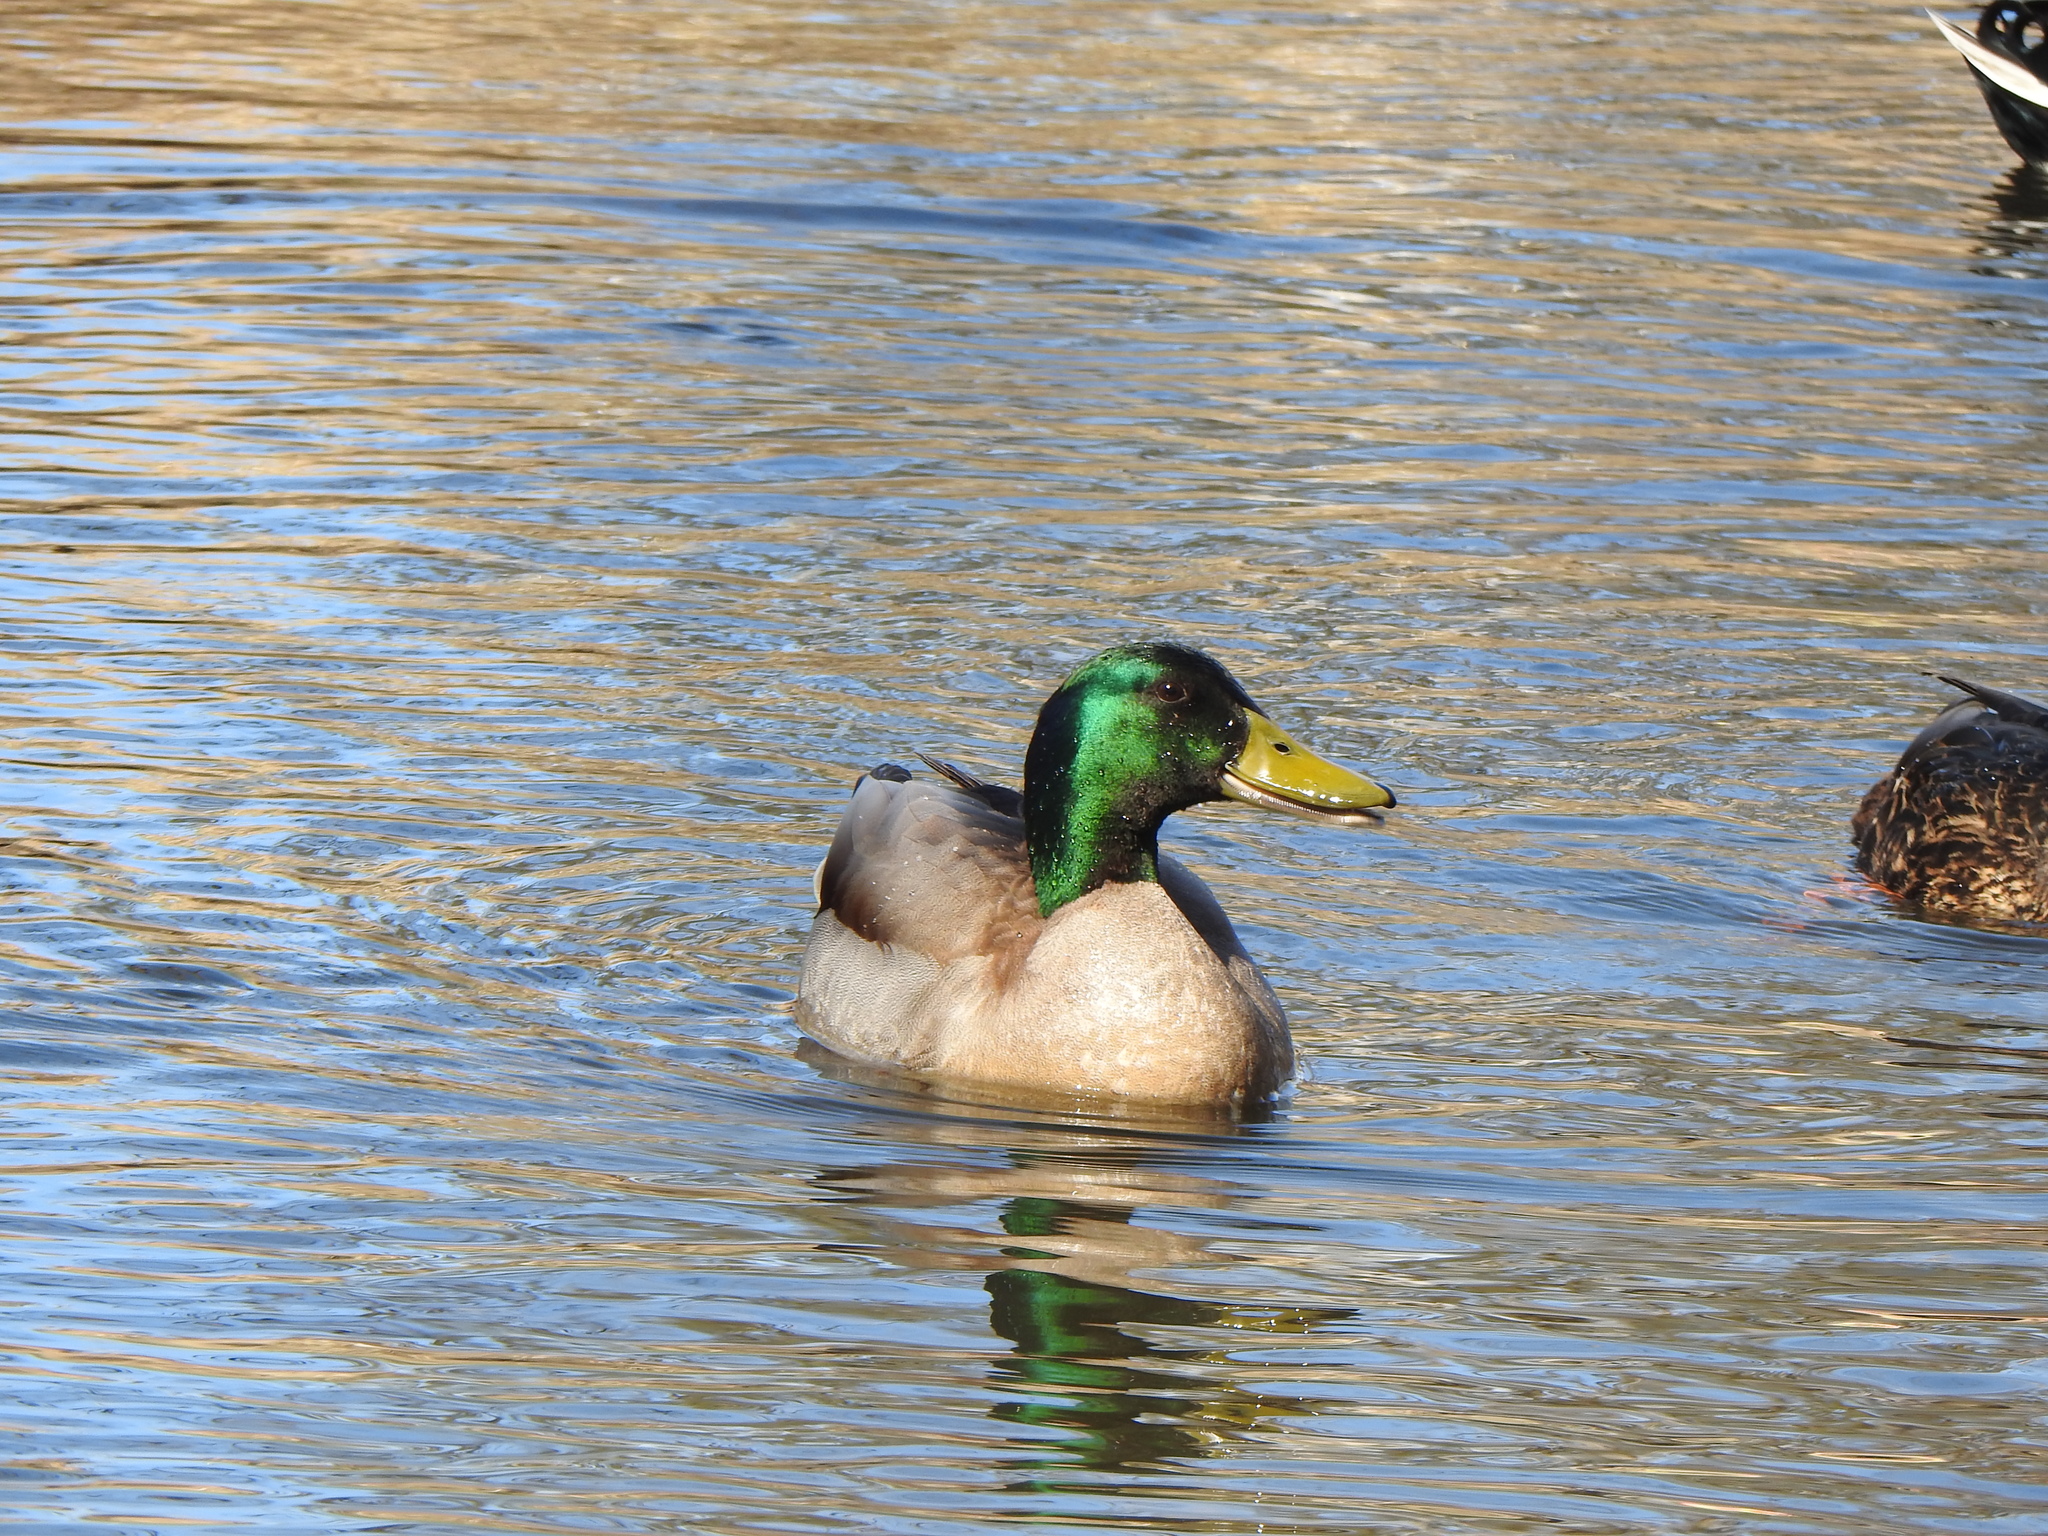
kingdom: Animalia
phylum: Chordata
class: Aves
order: Anseriformes
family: Anatidae
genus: Anas
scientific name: Anas platyrhynchos
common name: Mallard
